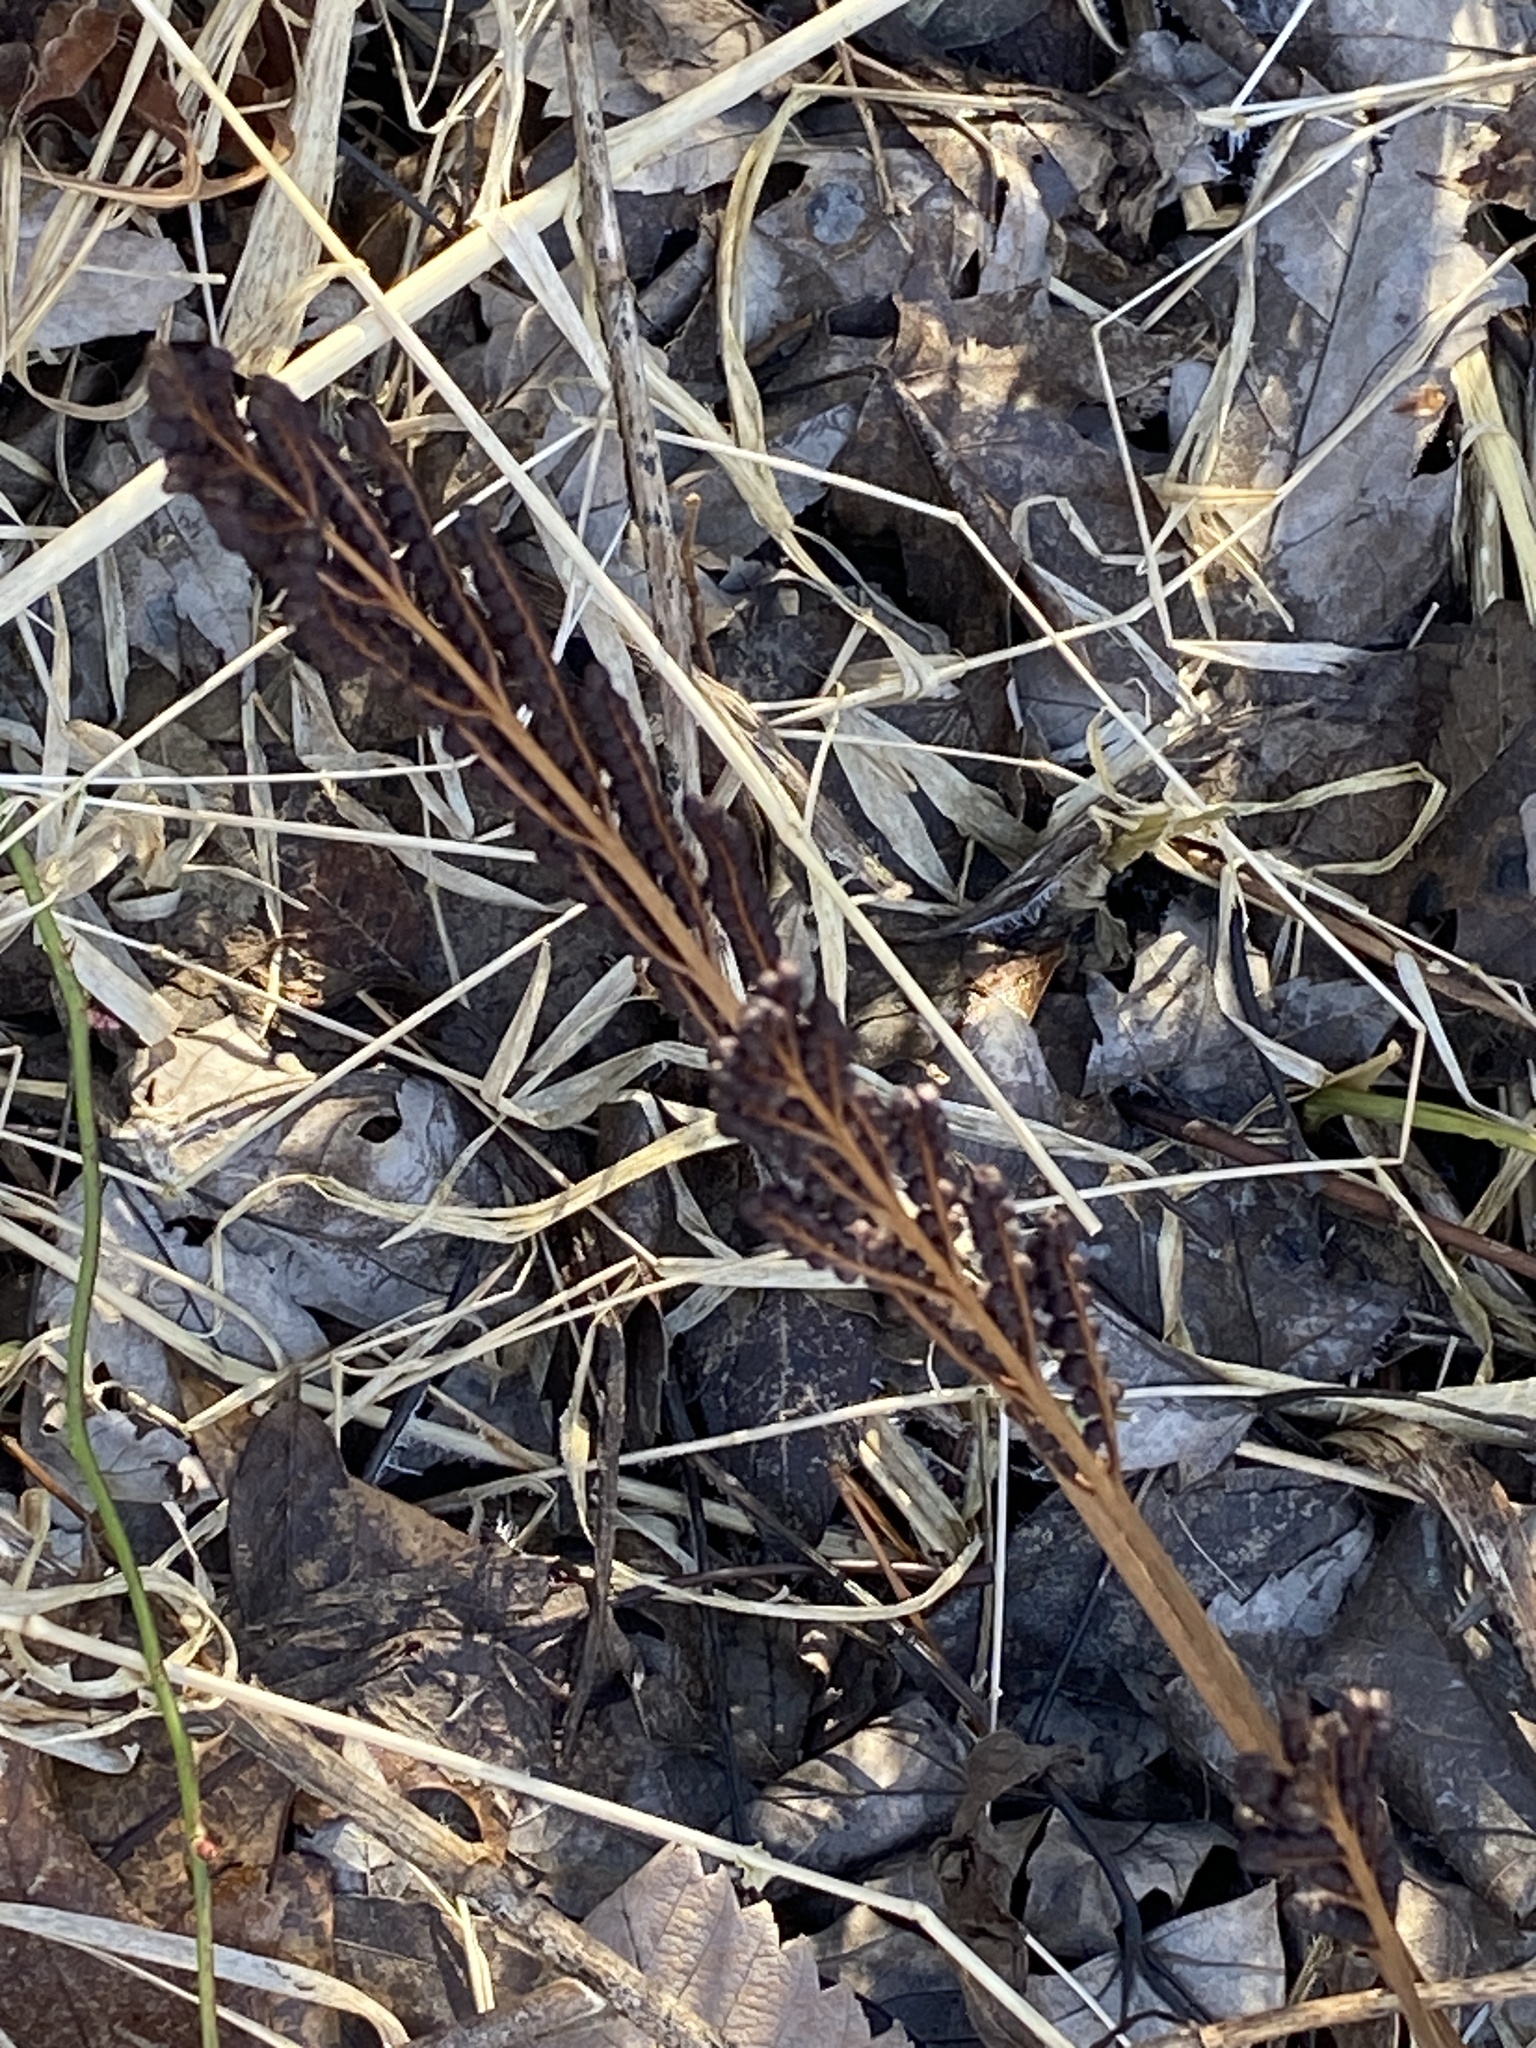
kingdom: Plantae
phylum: Tracheophyta
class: Polypodiopsida
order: Polypodiales
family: Onocleaceae
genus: Onoclea
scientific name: Onoclea sensibilis
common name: Sensitive fern
